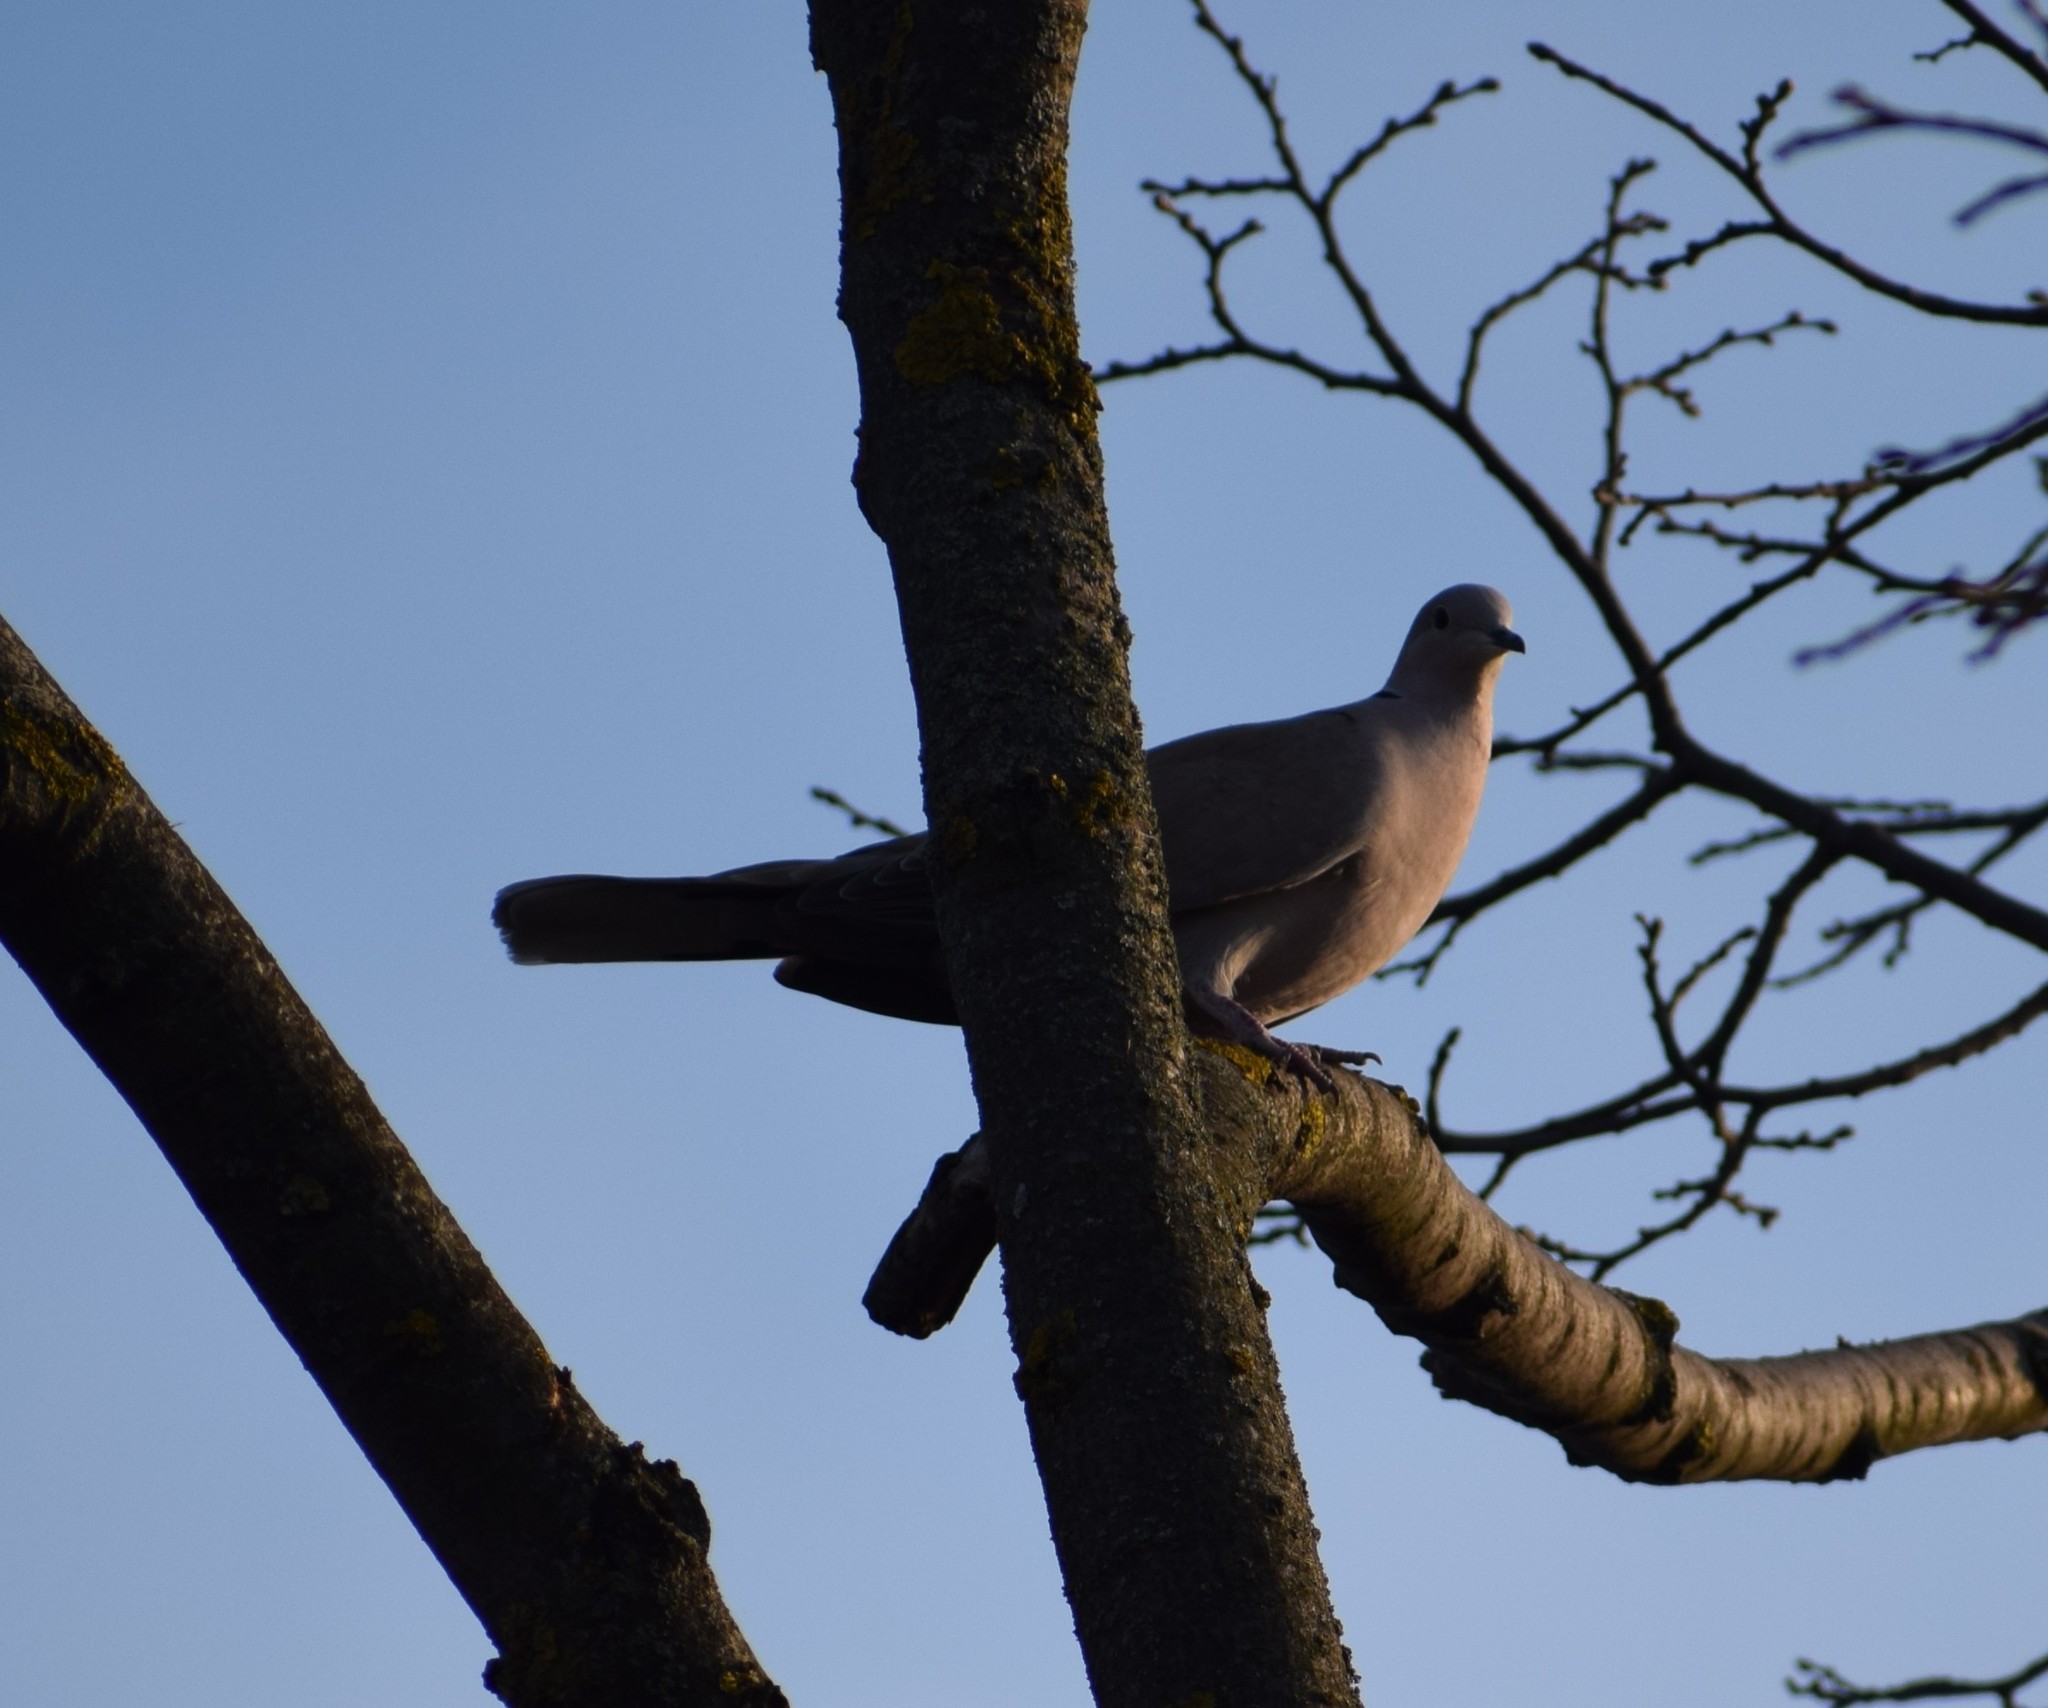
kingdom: Animalia
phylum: Chordata
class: Aves
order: Columbiformes
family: Columbidae
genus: Streptopelia
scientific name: Streptopelia decaocto
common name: Eurasian collared dove
